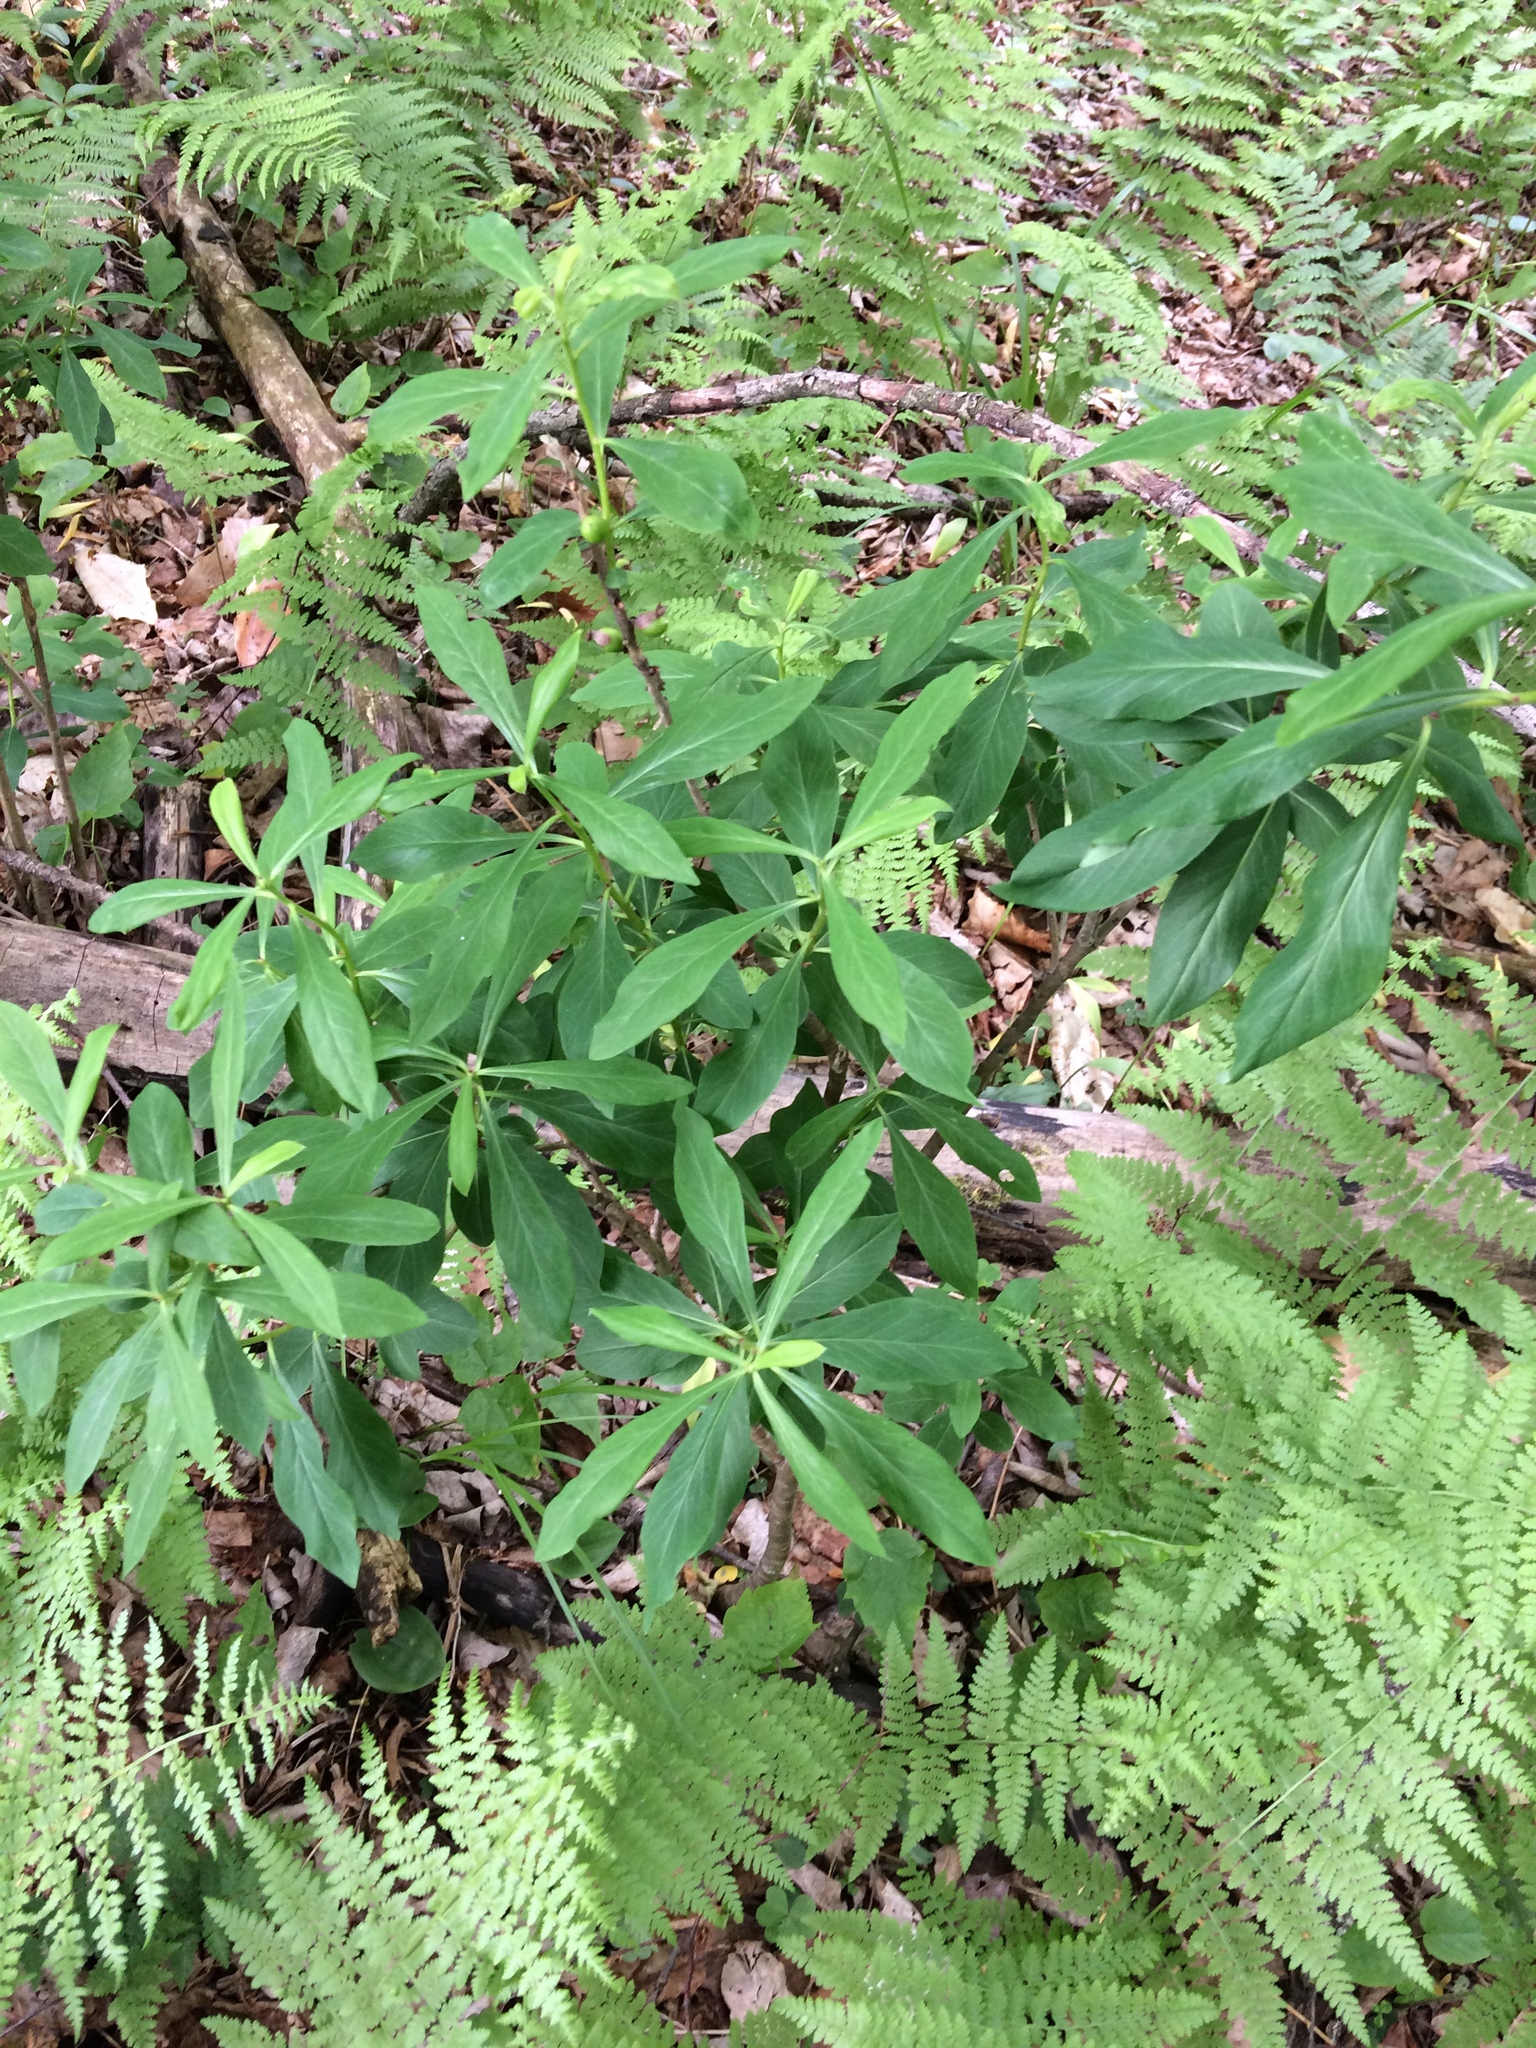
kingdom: Plantae
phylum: Tracheophyta
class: Magnoliopsida
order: Malvales
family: Thymelaeaceae
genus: Daphne
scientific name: Daphne mezereum
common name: Mezereon
